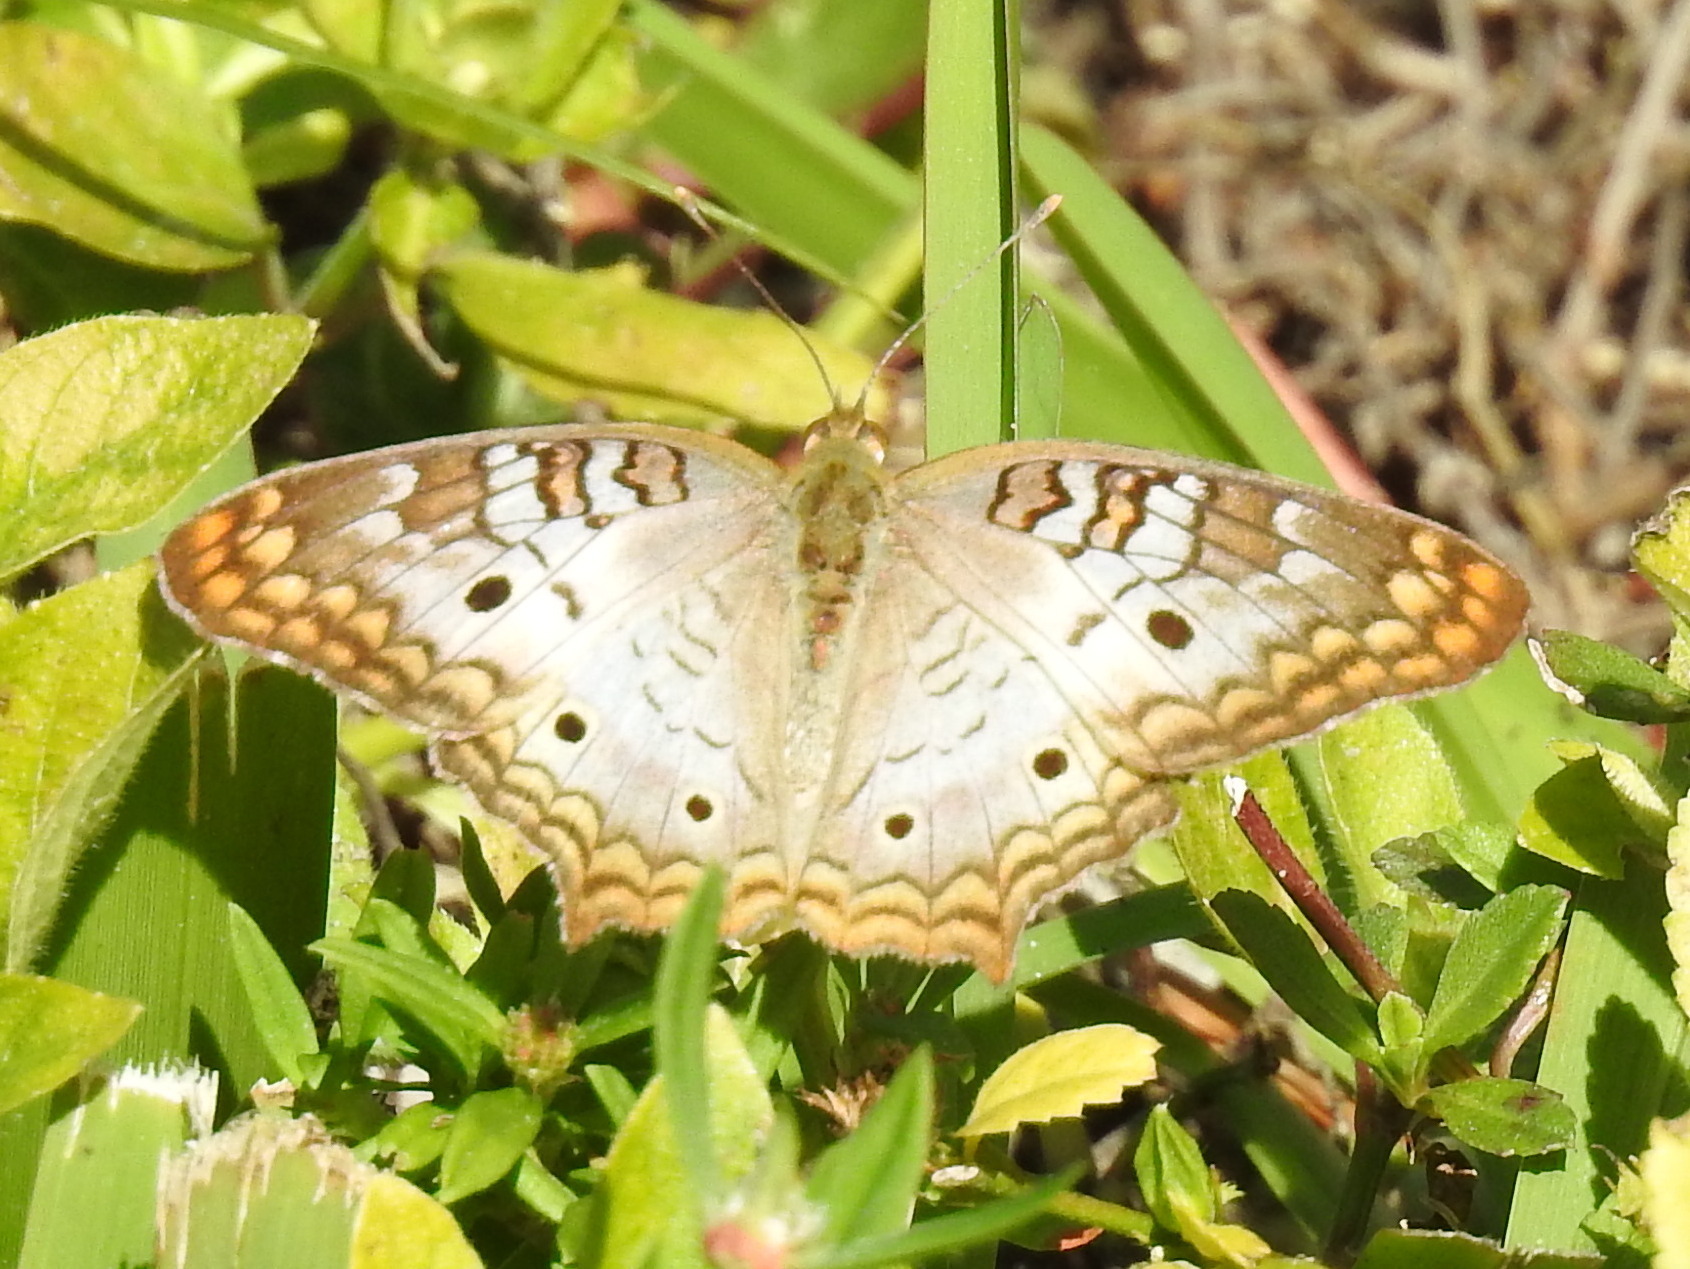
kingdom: Animalia
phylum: Arthropoda
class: Insecta
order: Lepidoptera
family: Nymphalidae
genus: Anartia
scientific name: Anartia jatrophae
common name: White peacock
